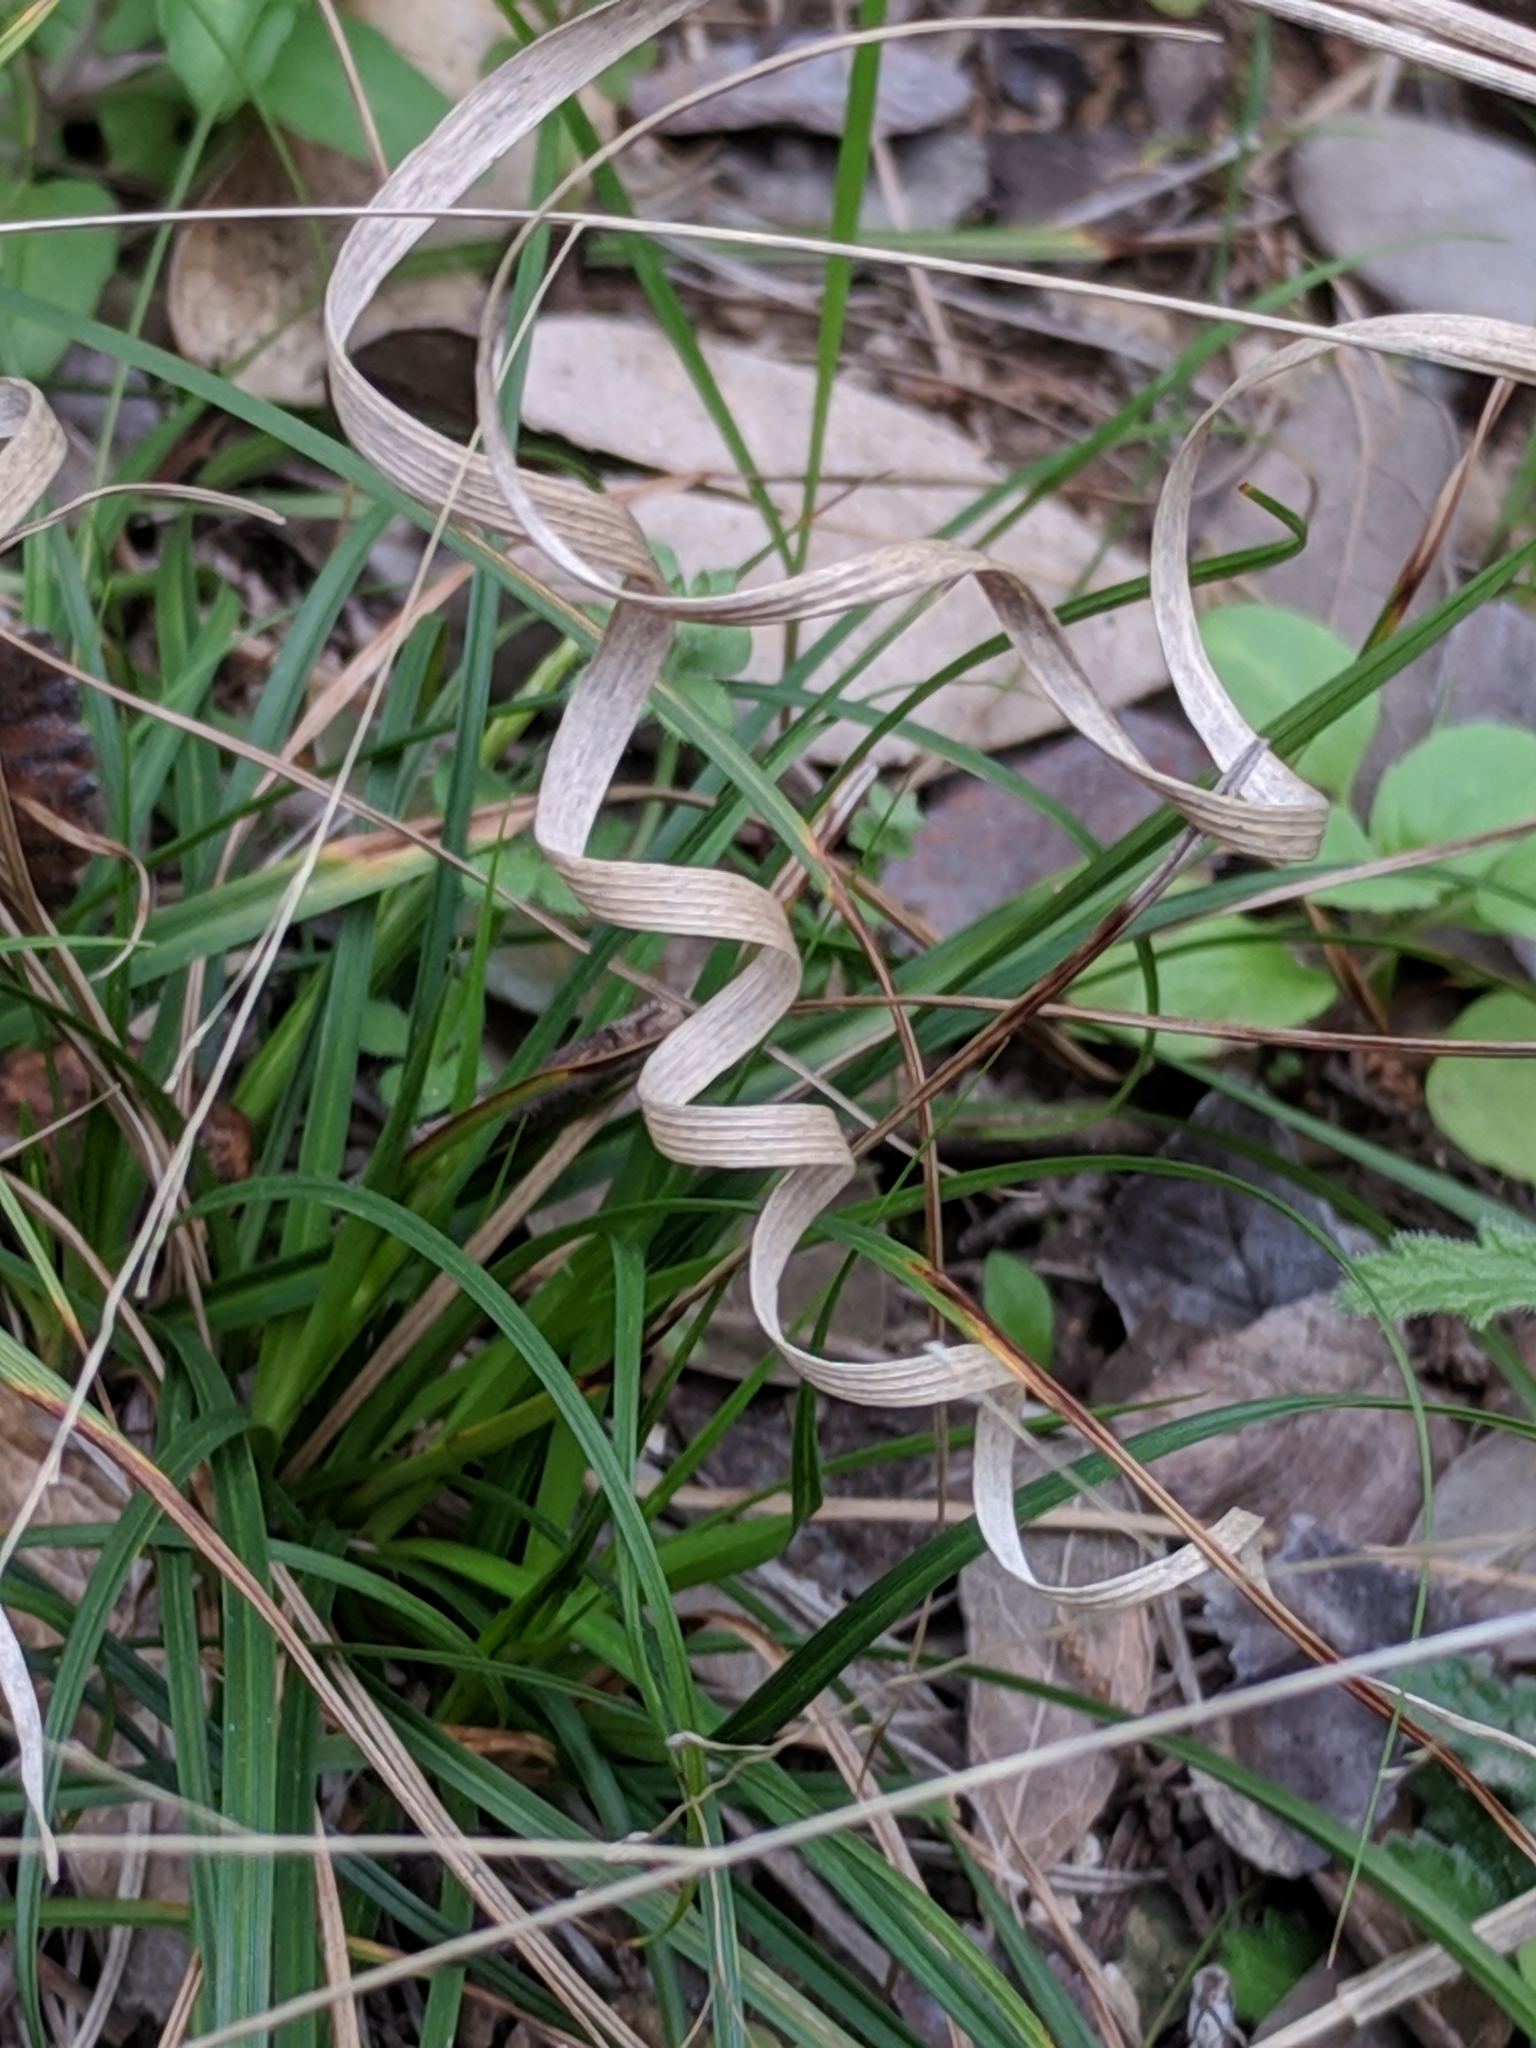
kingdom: Plantae
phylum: Tracheophyta
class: Liliopsida
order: Poales
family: Poaceae
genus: Panicum
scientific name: Panicum hallii
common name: Hall's witchgrass
